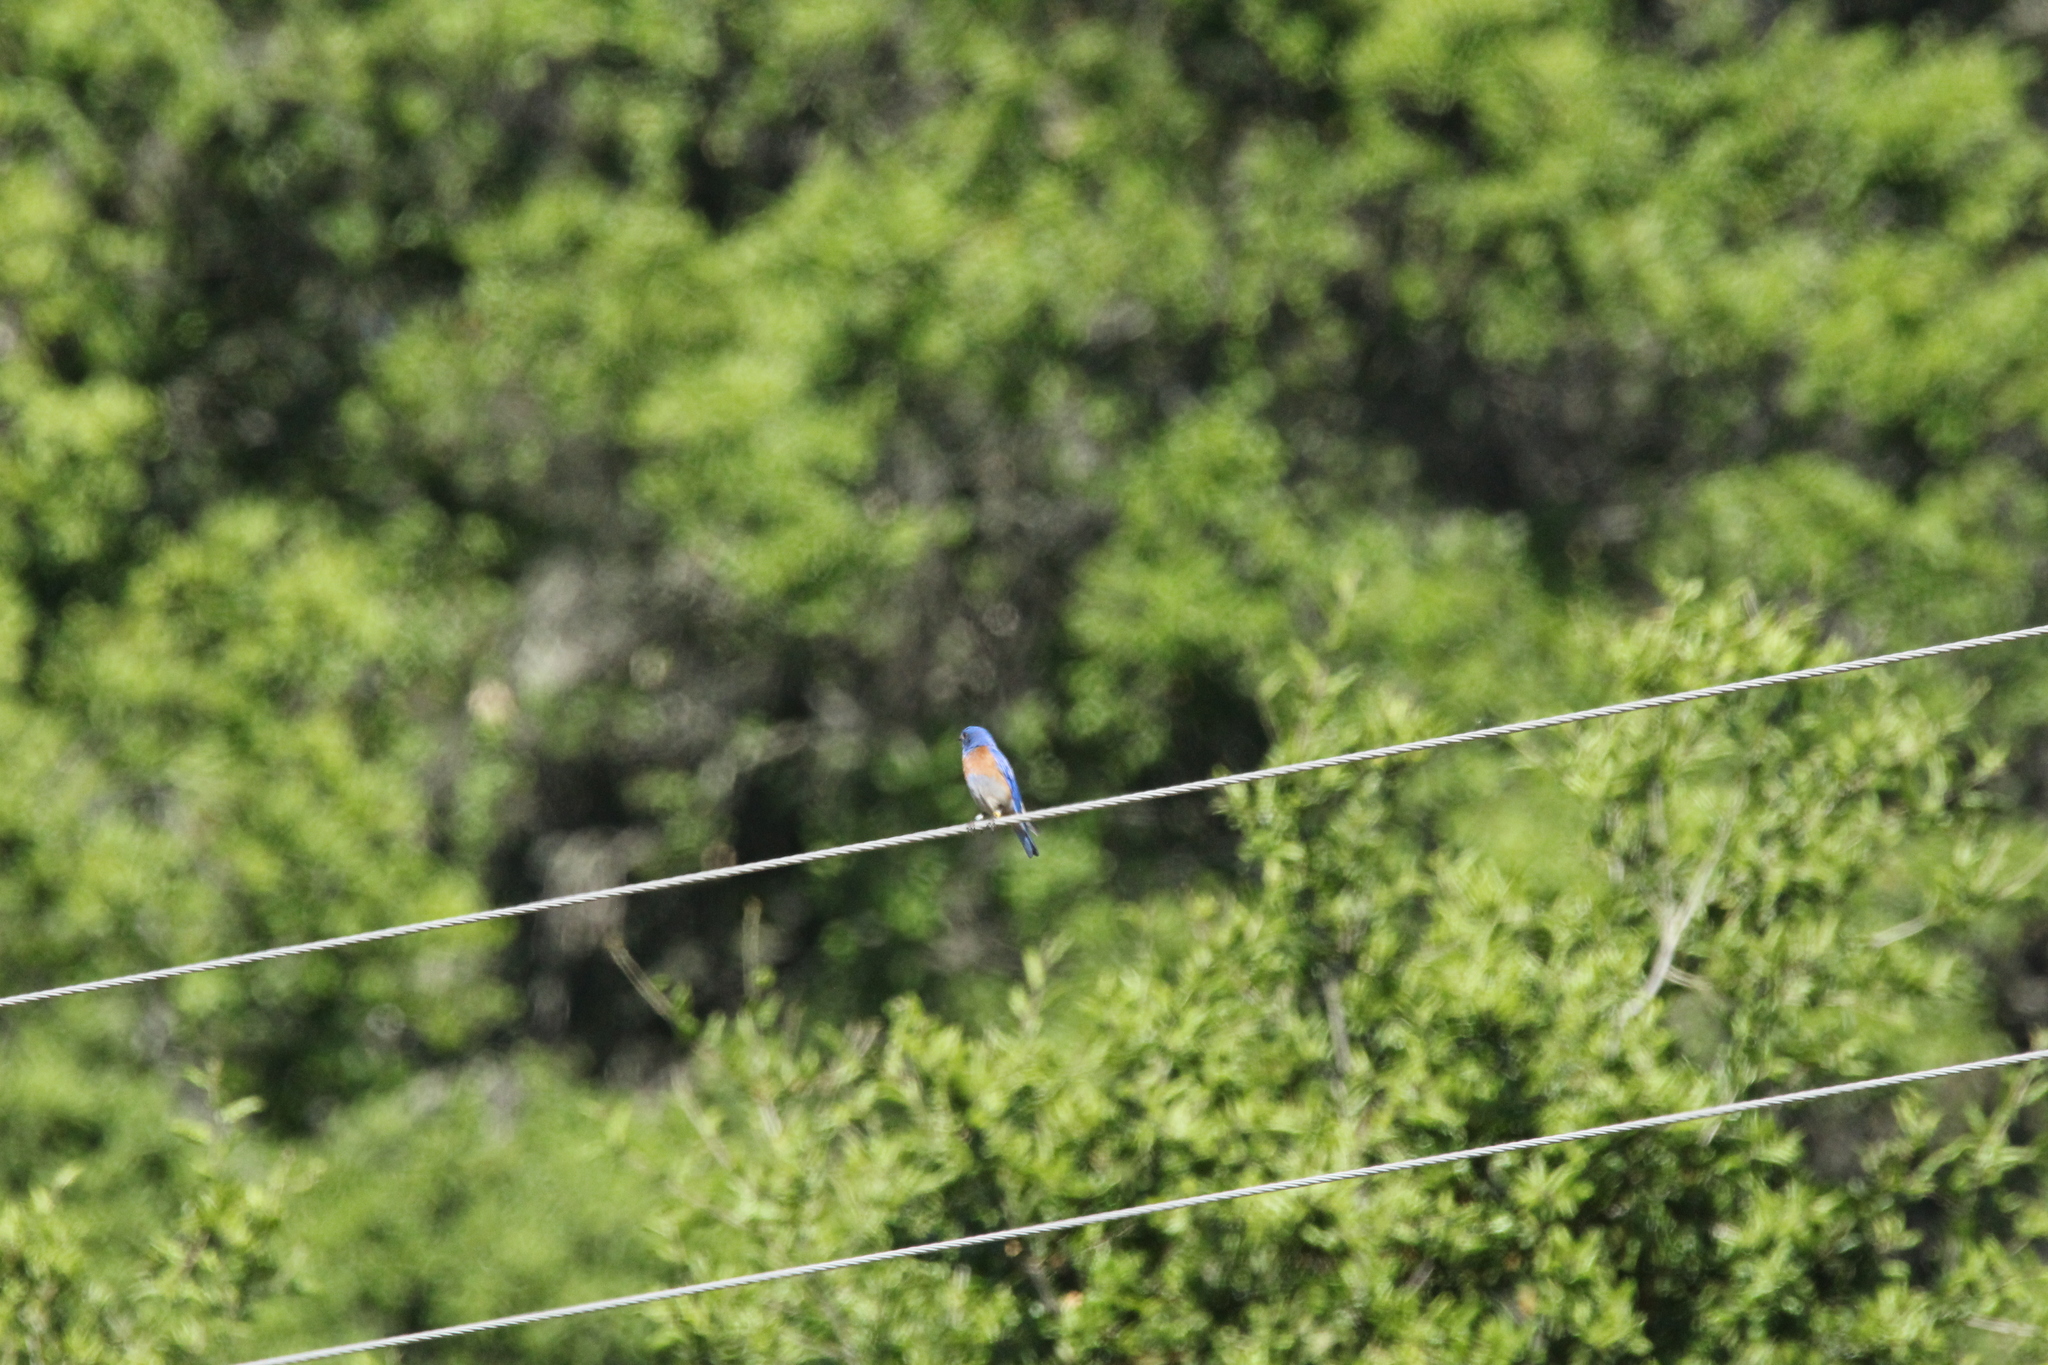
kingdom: Animalia
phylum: Chordata
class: Aves
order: Passeriformes
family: Turdidae
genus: Sialia
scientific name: Sialia mexicana
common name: Western bluebird
